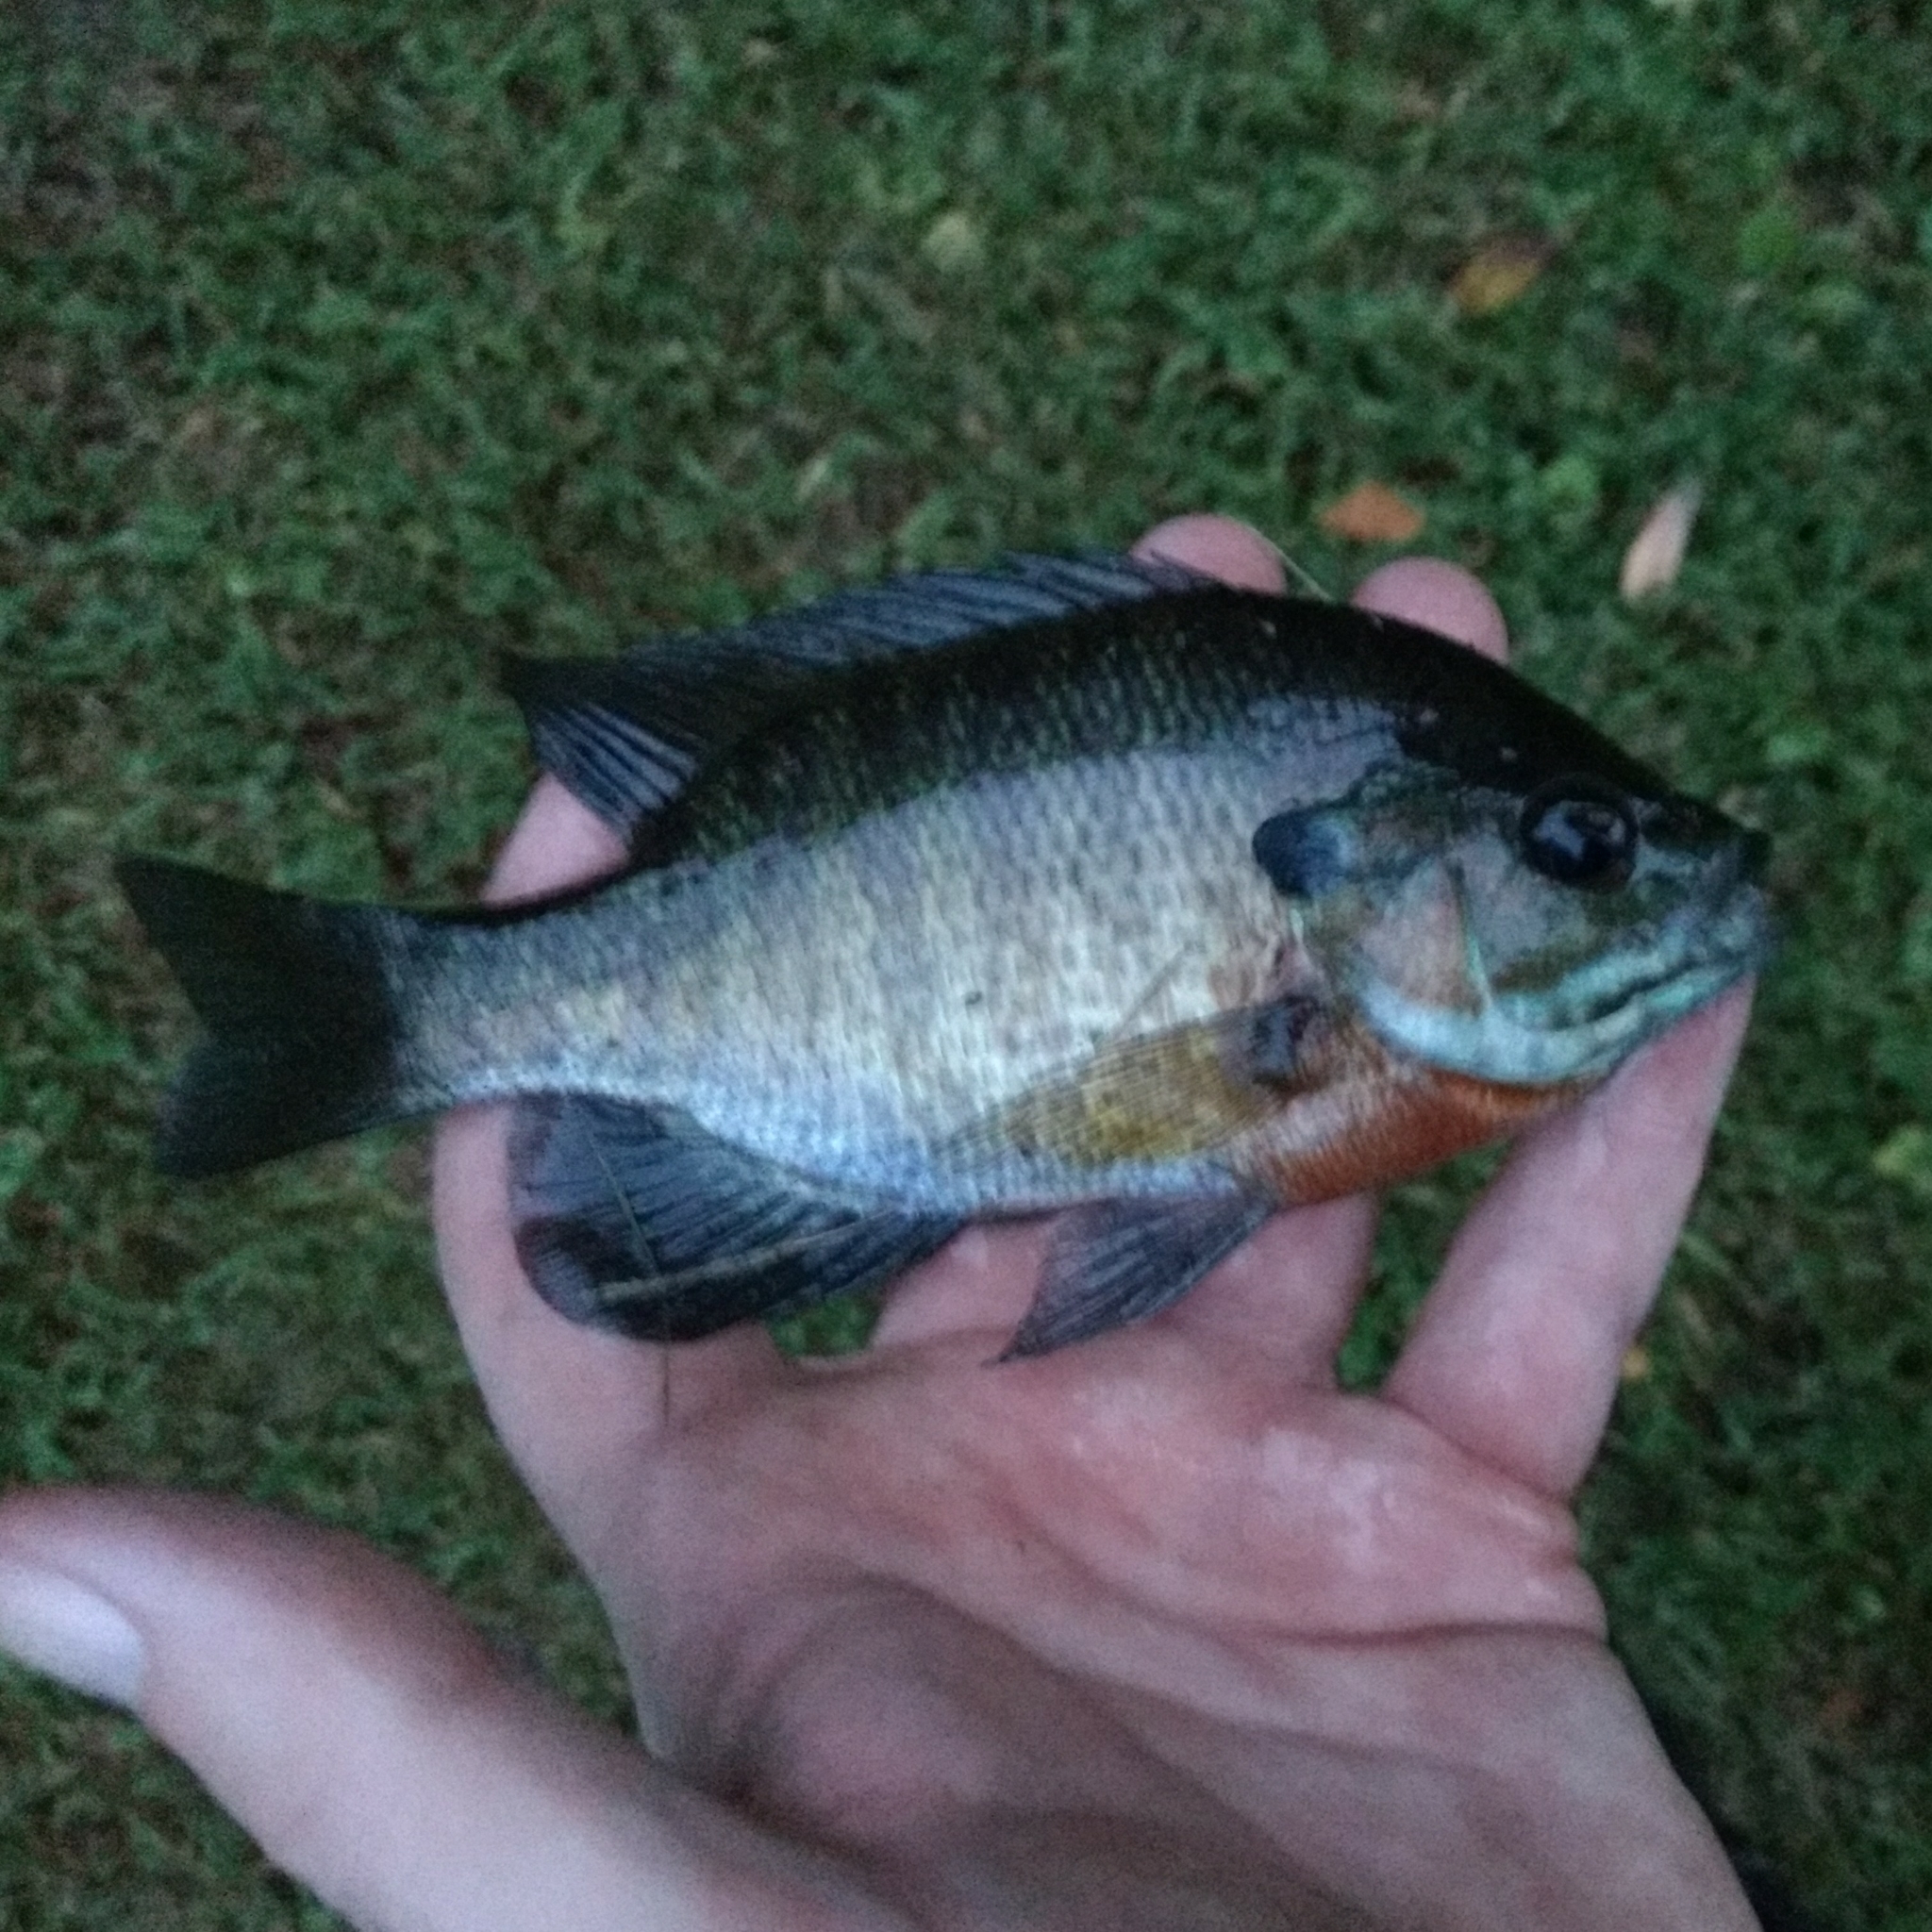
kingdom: Animalia
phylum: Chordata
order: Perciformes
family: Centrarchidae
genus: Lepomis
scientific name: Lepomis macrochirus
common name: Bluegill
